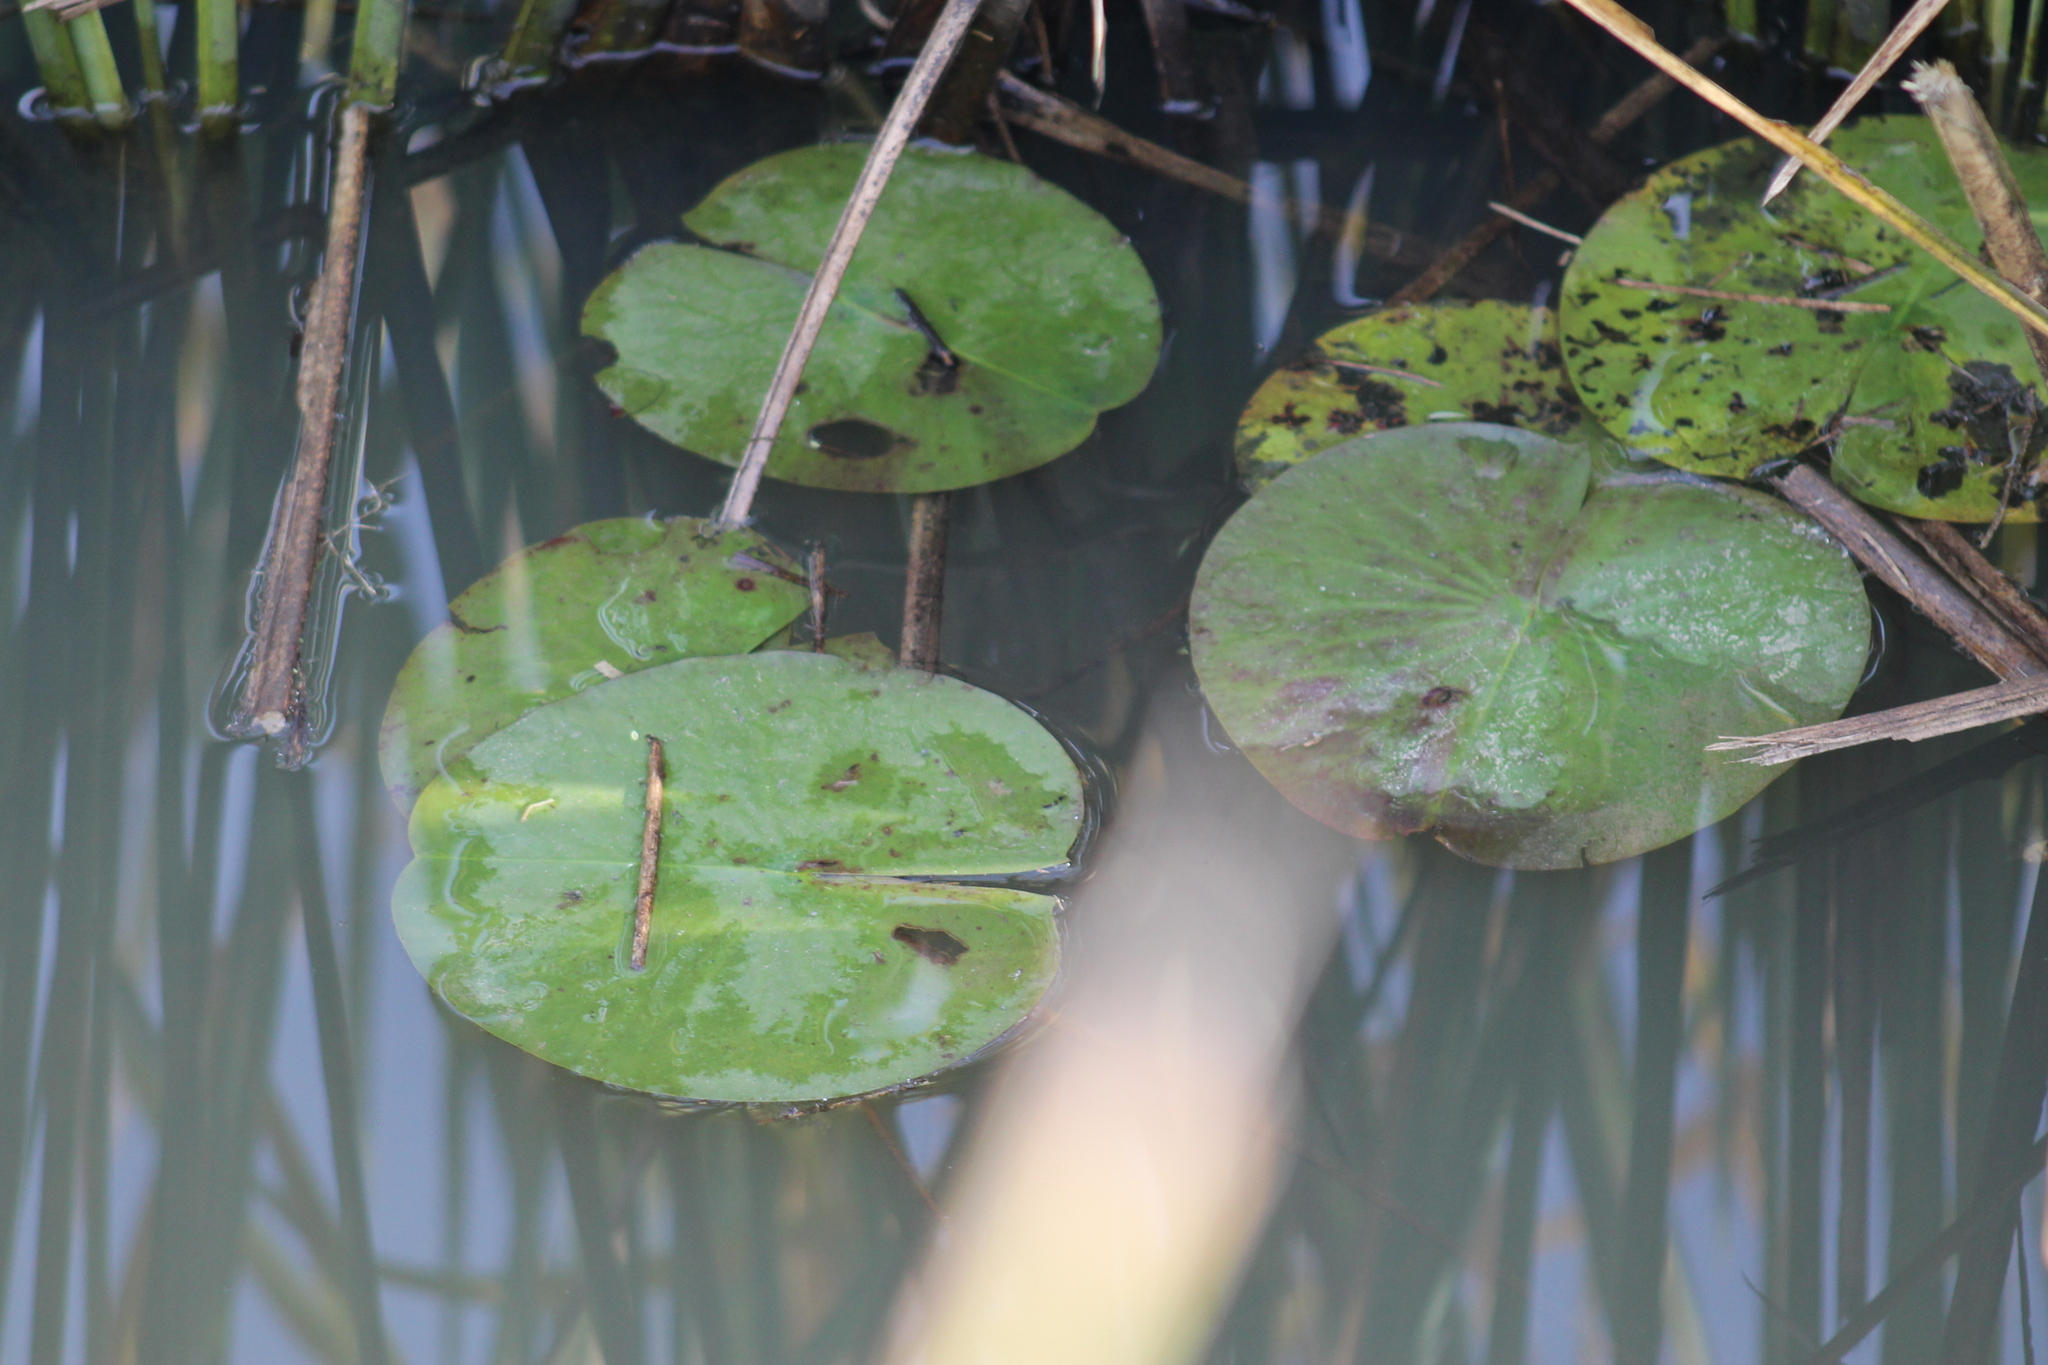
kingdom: Plantae
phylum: Tracheophyta
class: Magnoliopsida
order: Nymphaeales
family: Nymphaeaceae
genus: Nymphaea
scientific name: Nymphaea odorata
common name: Fragrant water-lily
